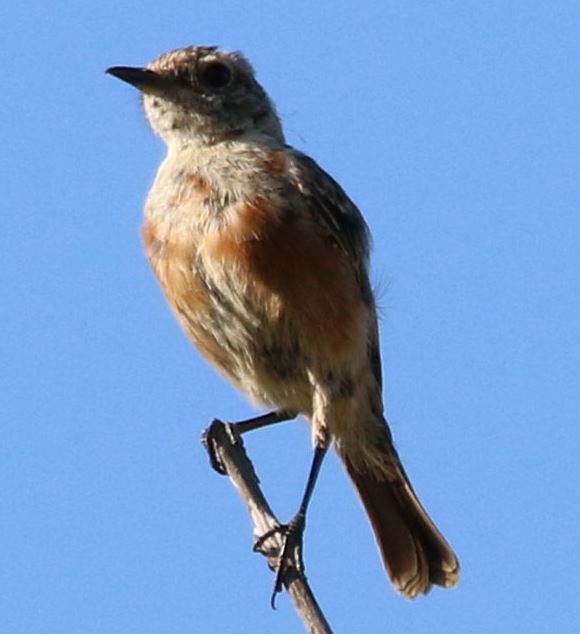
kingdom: Animalia
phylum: Chordata
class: Aves
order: Passeriformes
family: Muscicapidae
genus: Saxicola
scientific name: Saxicola rubicola
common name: European stonechat
